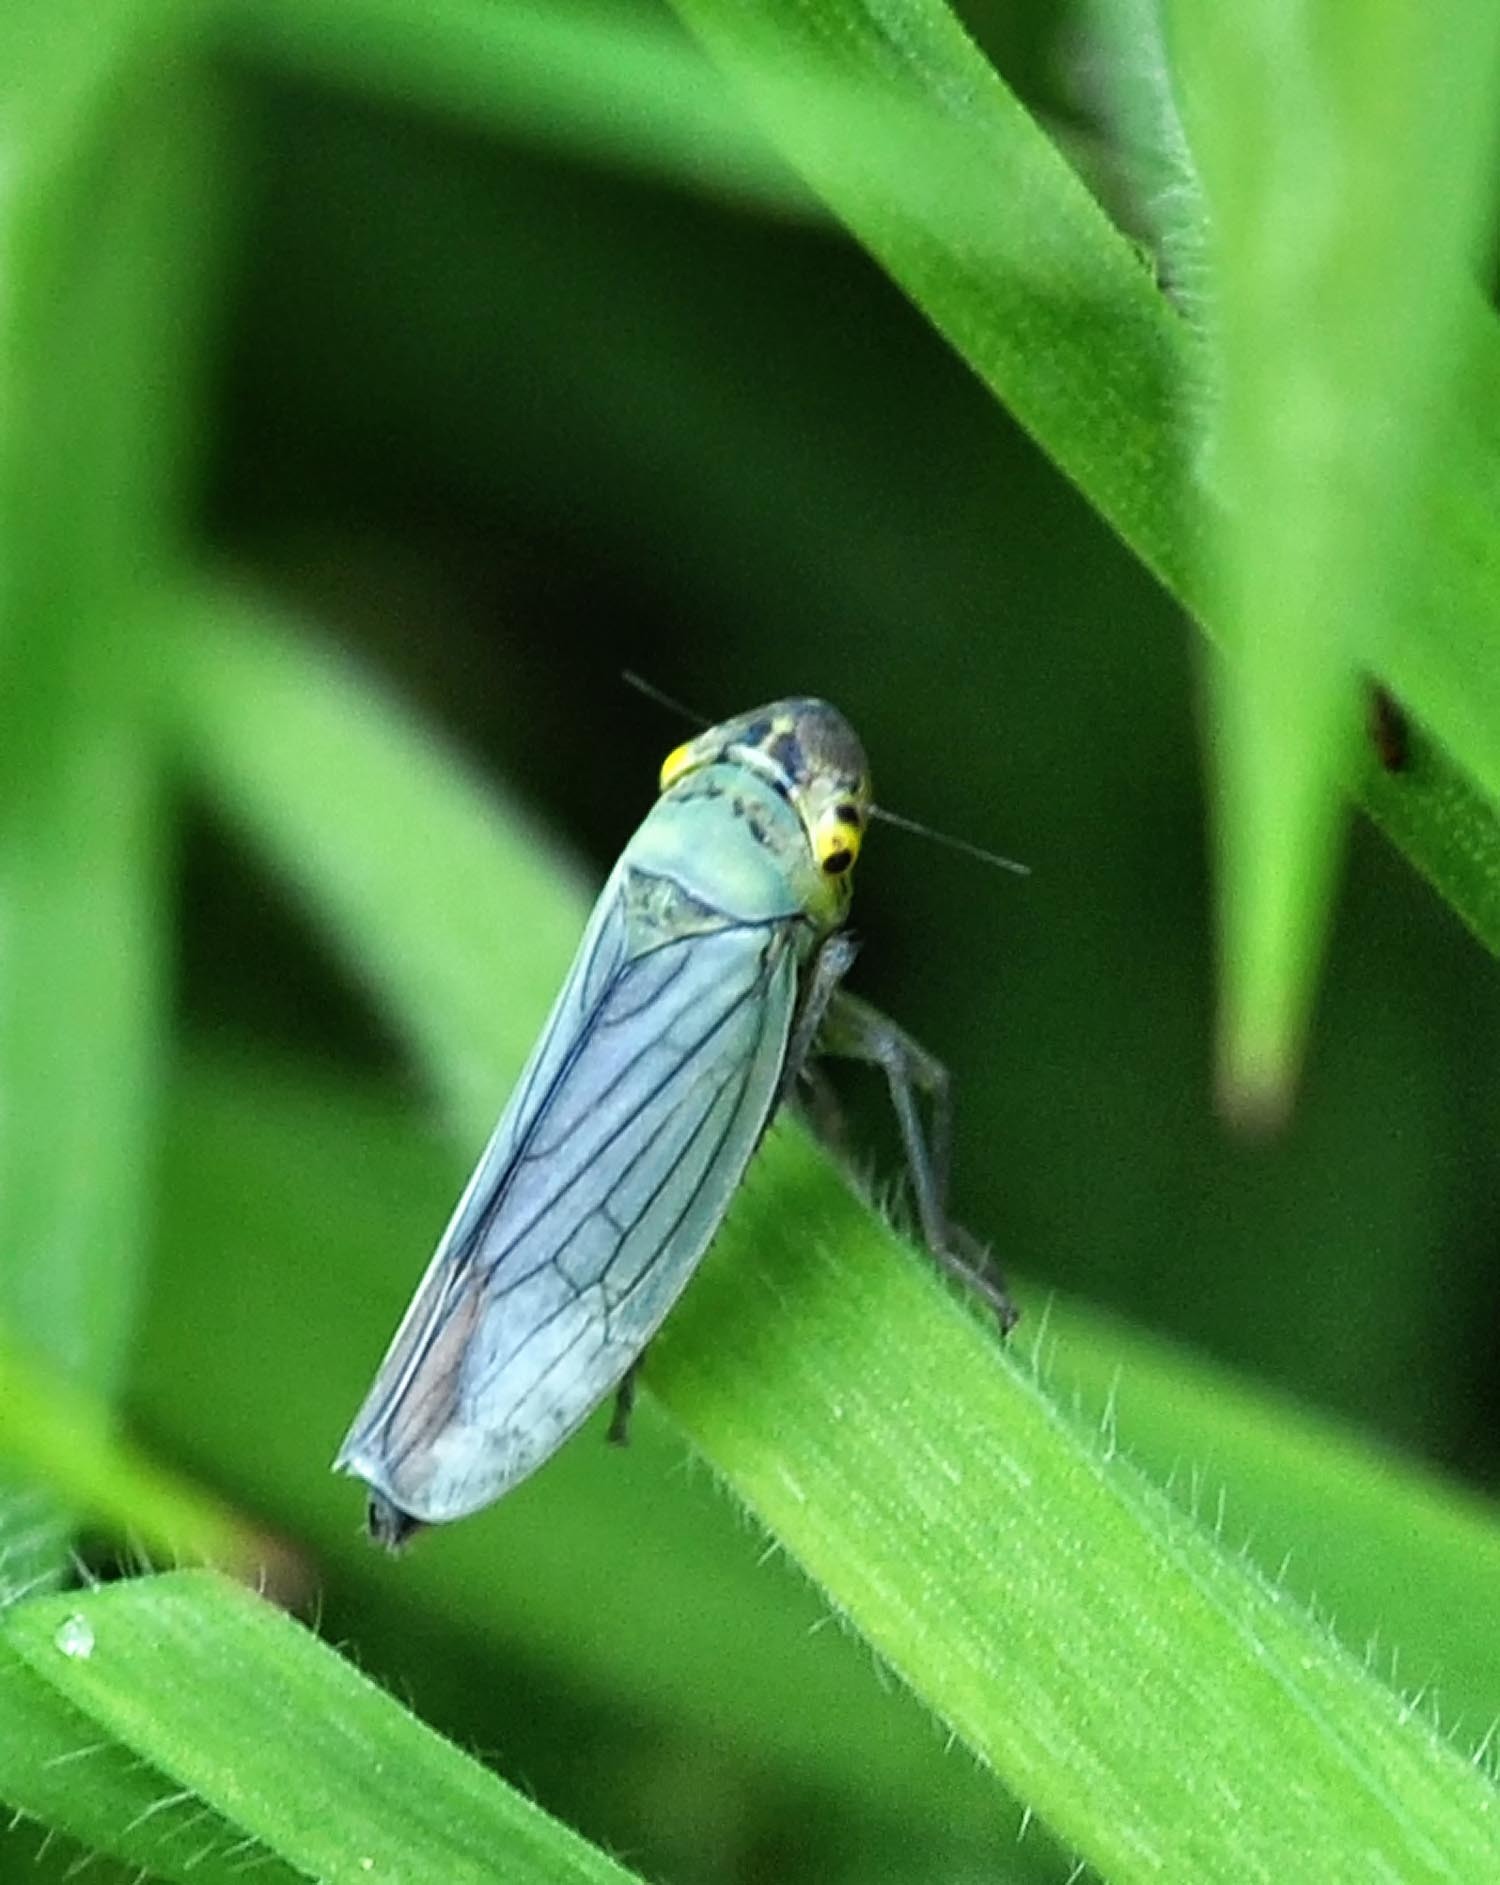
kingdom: Animalia
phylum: Arthropoda
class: Insecta
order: Hemiptera
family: Cicadellidae
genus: Cicadella
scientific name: Cicadella viridis
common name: Leafhopper
